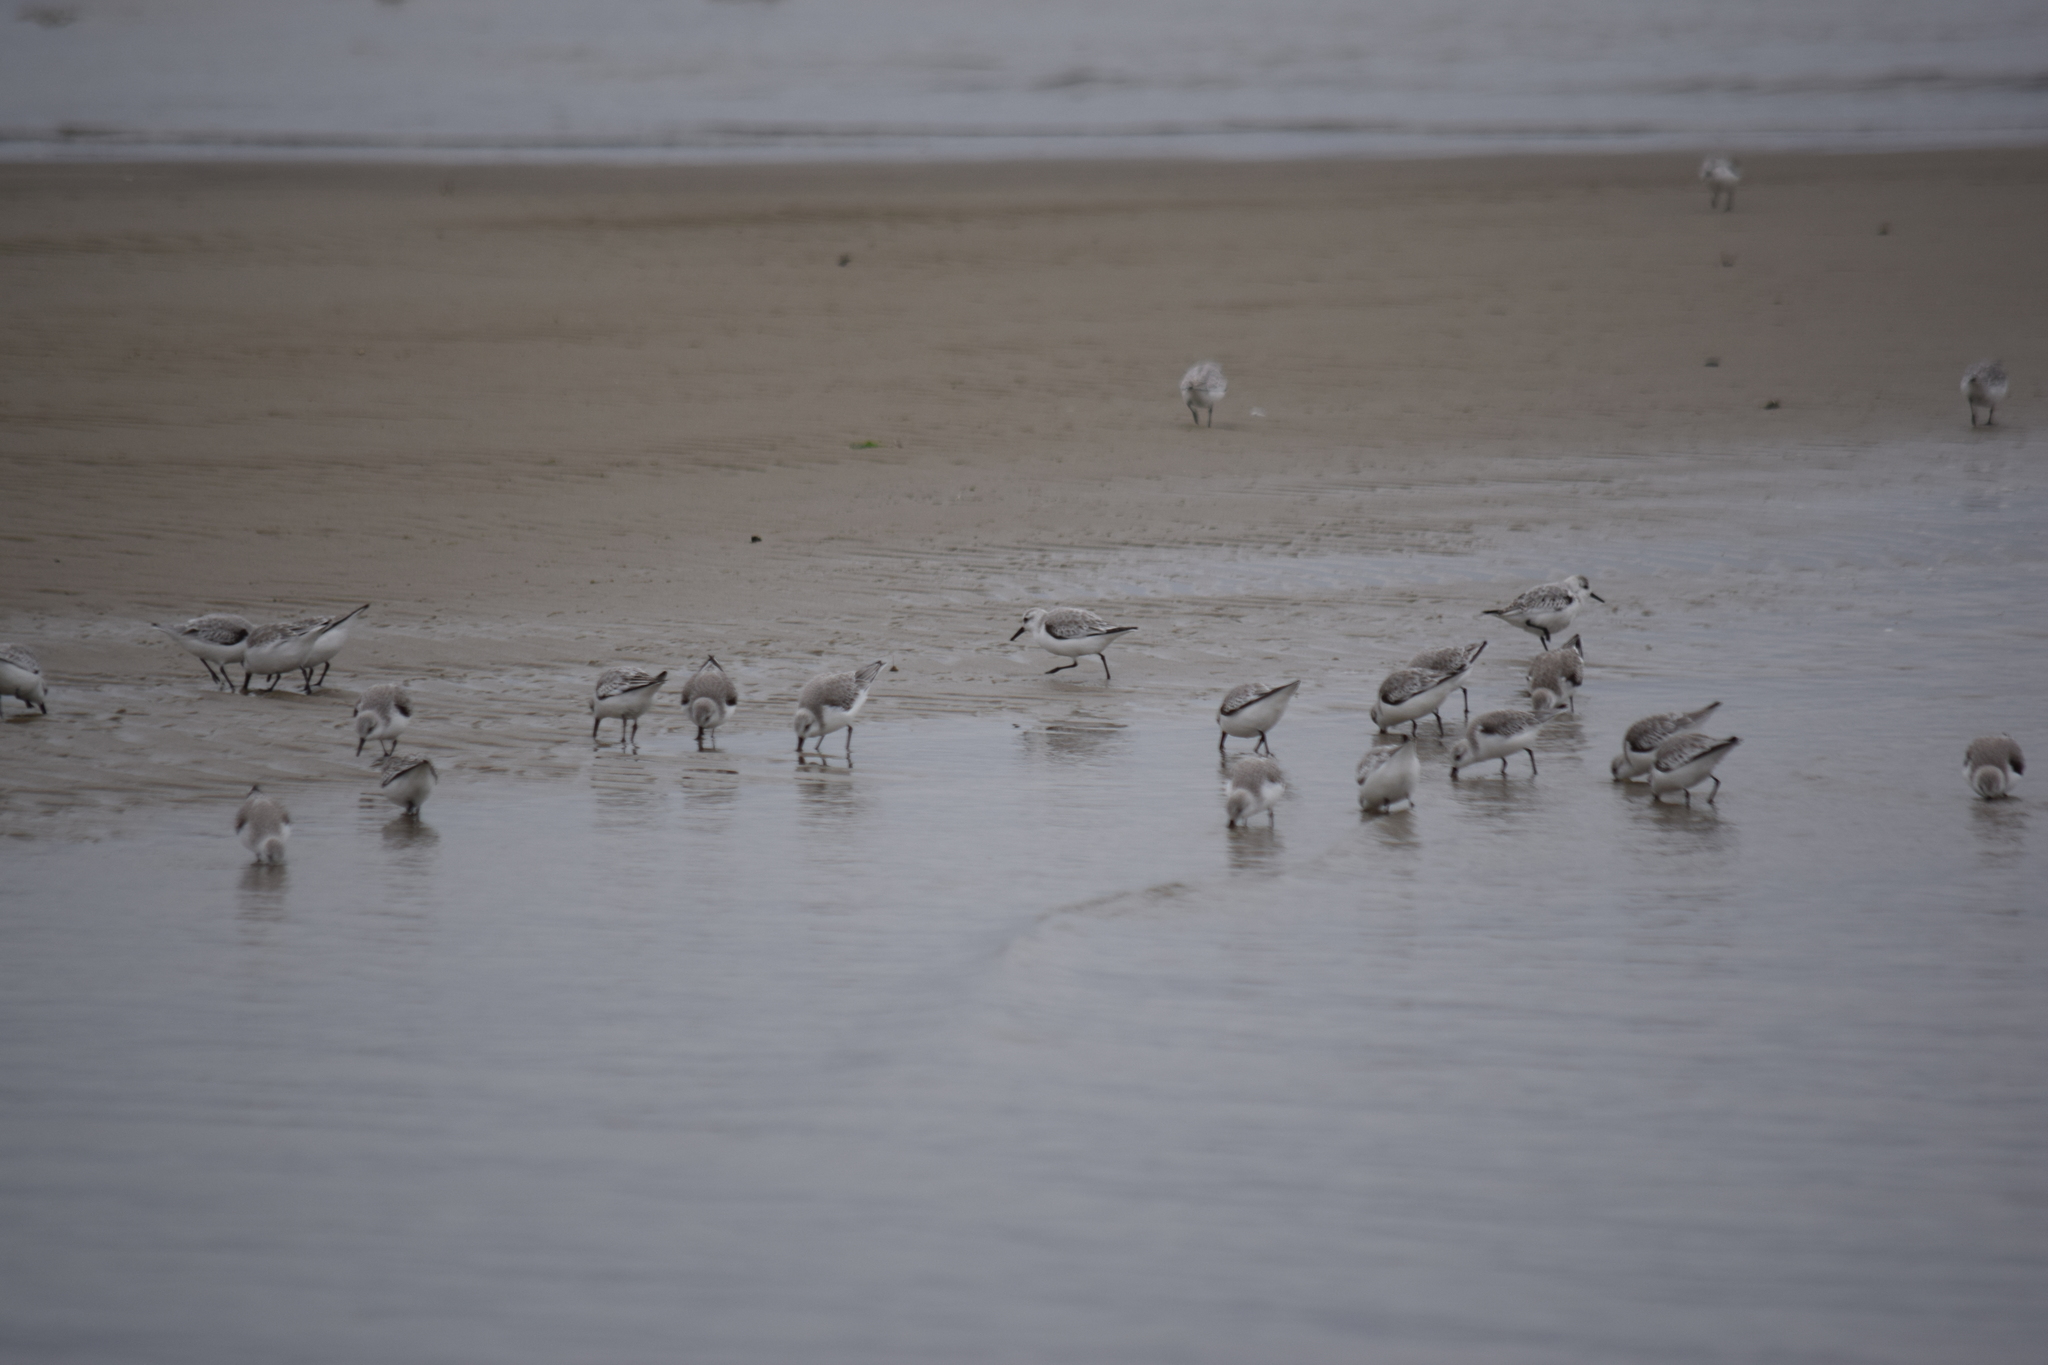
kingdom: Animalia
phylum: Chordata
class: Aves
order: Charadriiformes
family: Scolopacidae
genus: Calidris
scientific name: Calidris alba
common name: Sanderling
